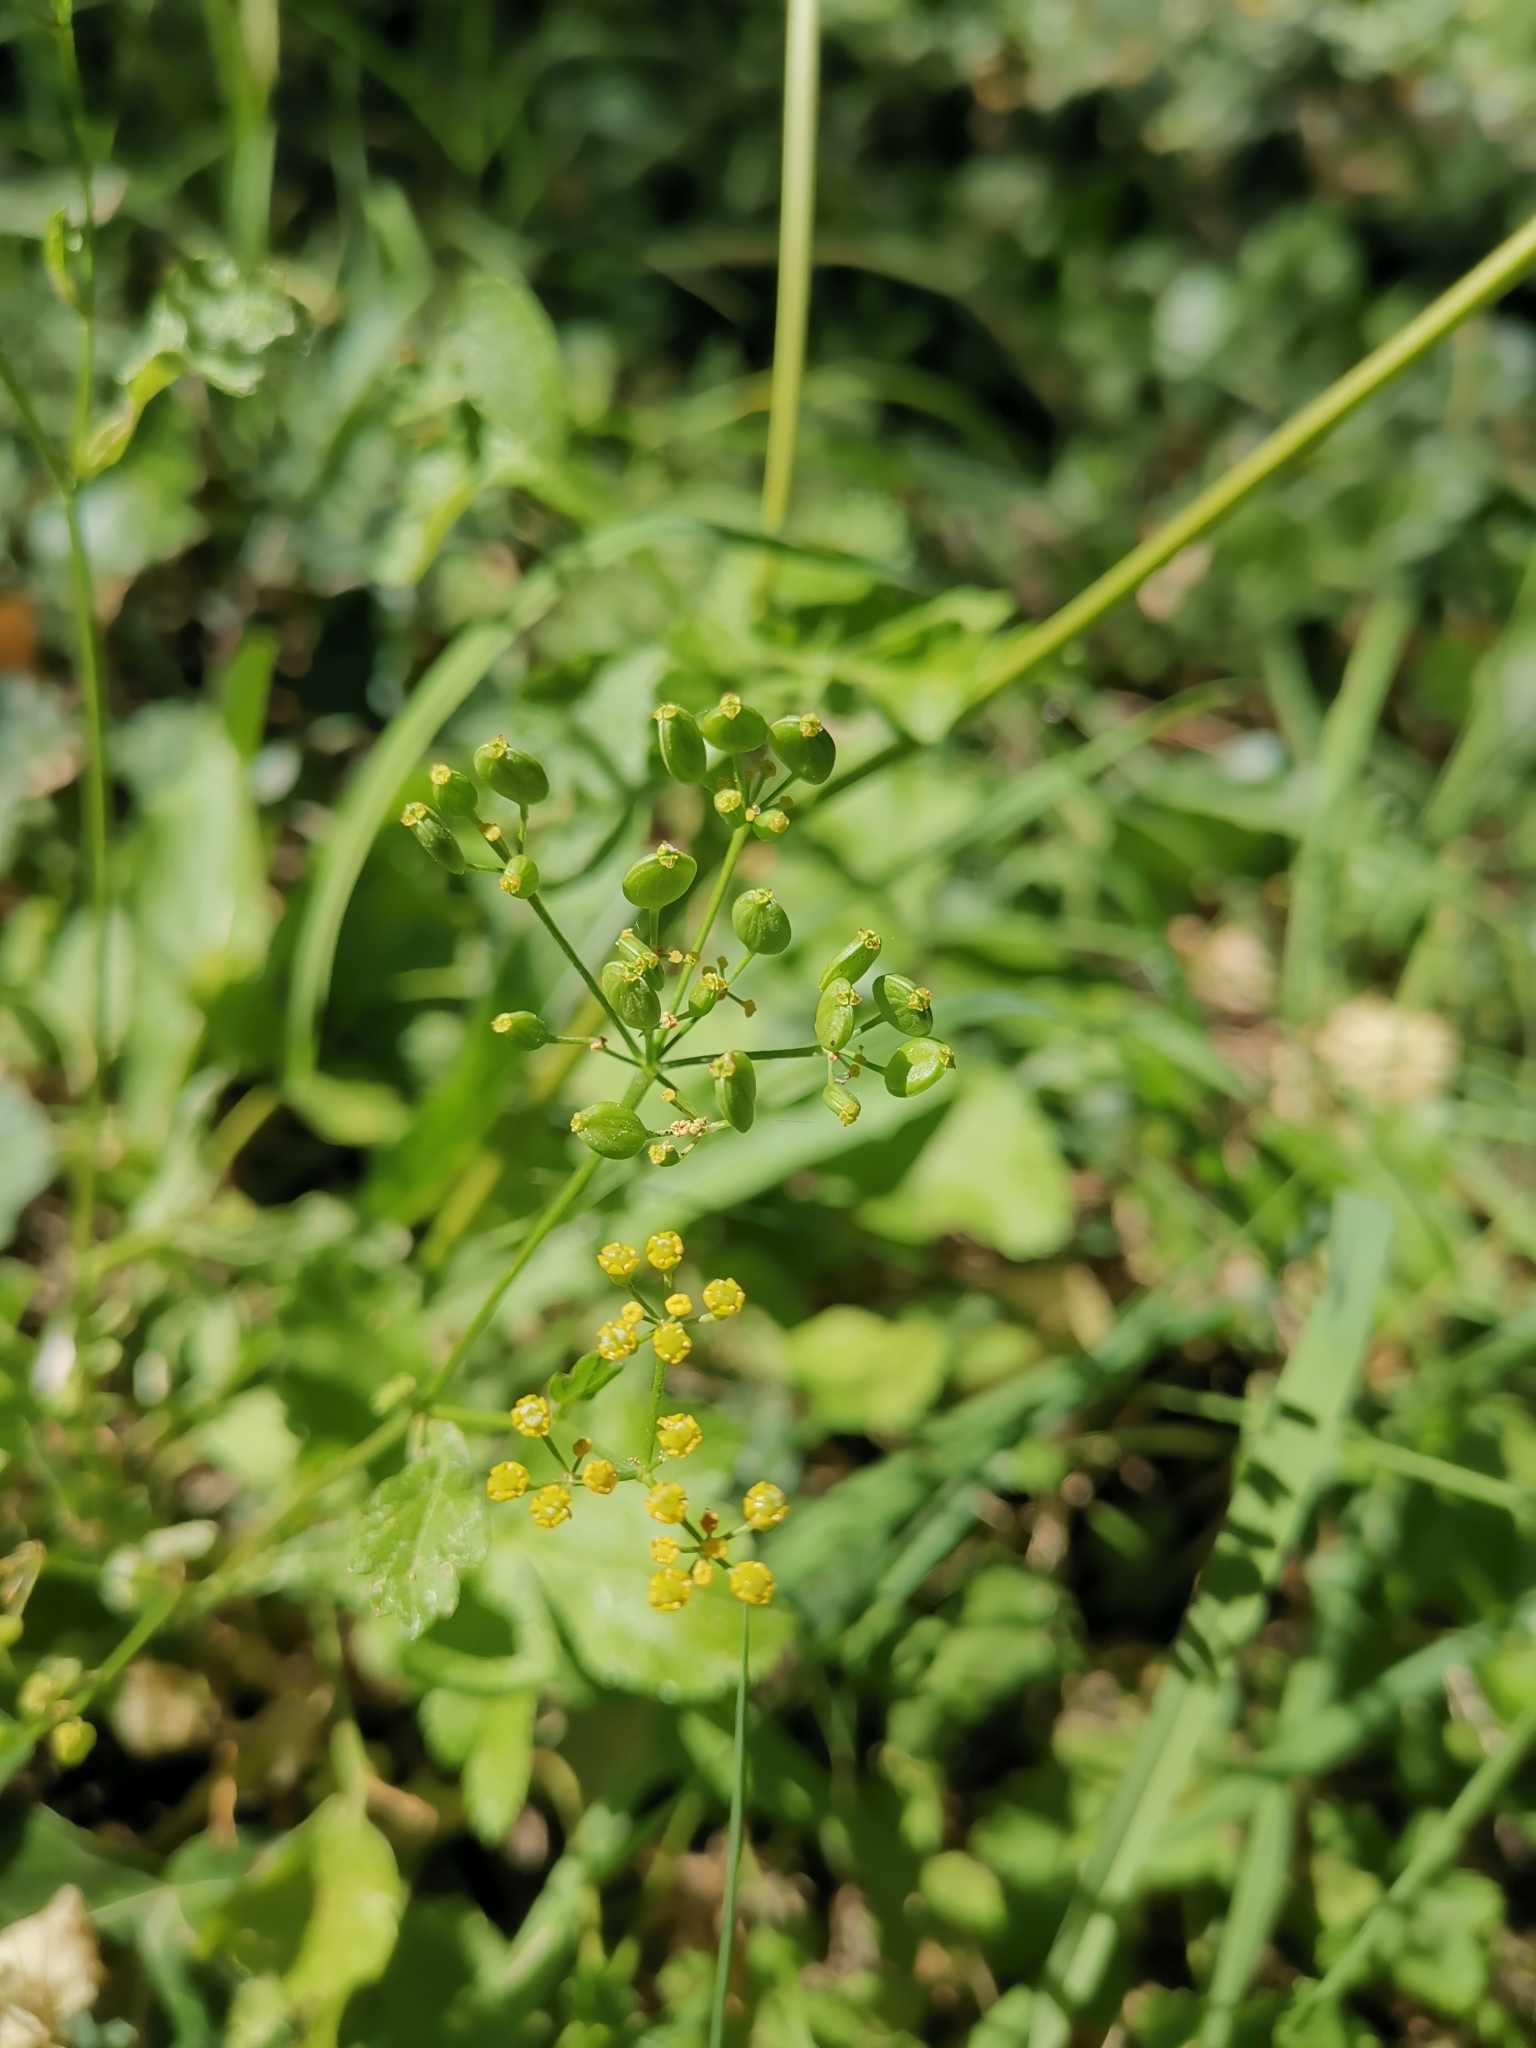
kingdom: Plantae
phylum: Tracheophyta
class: Magnoliopsida
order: Apiales
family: Apiaceae
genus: Pastinaca
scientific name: Pastinaca sativa
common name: Wild parsnip
